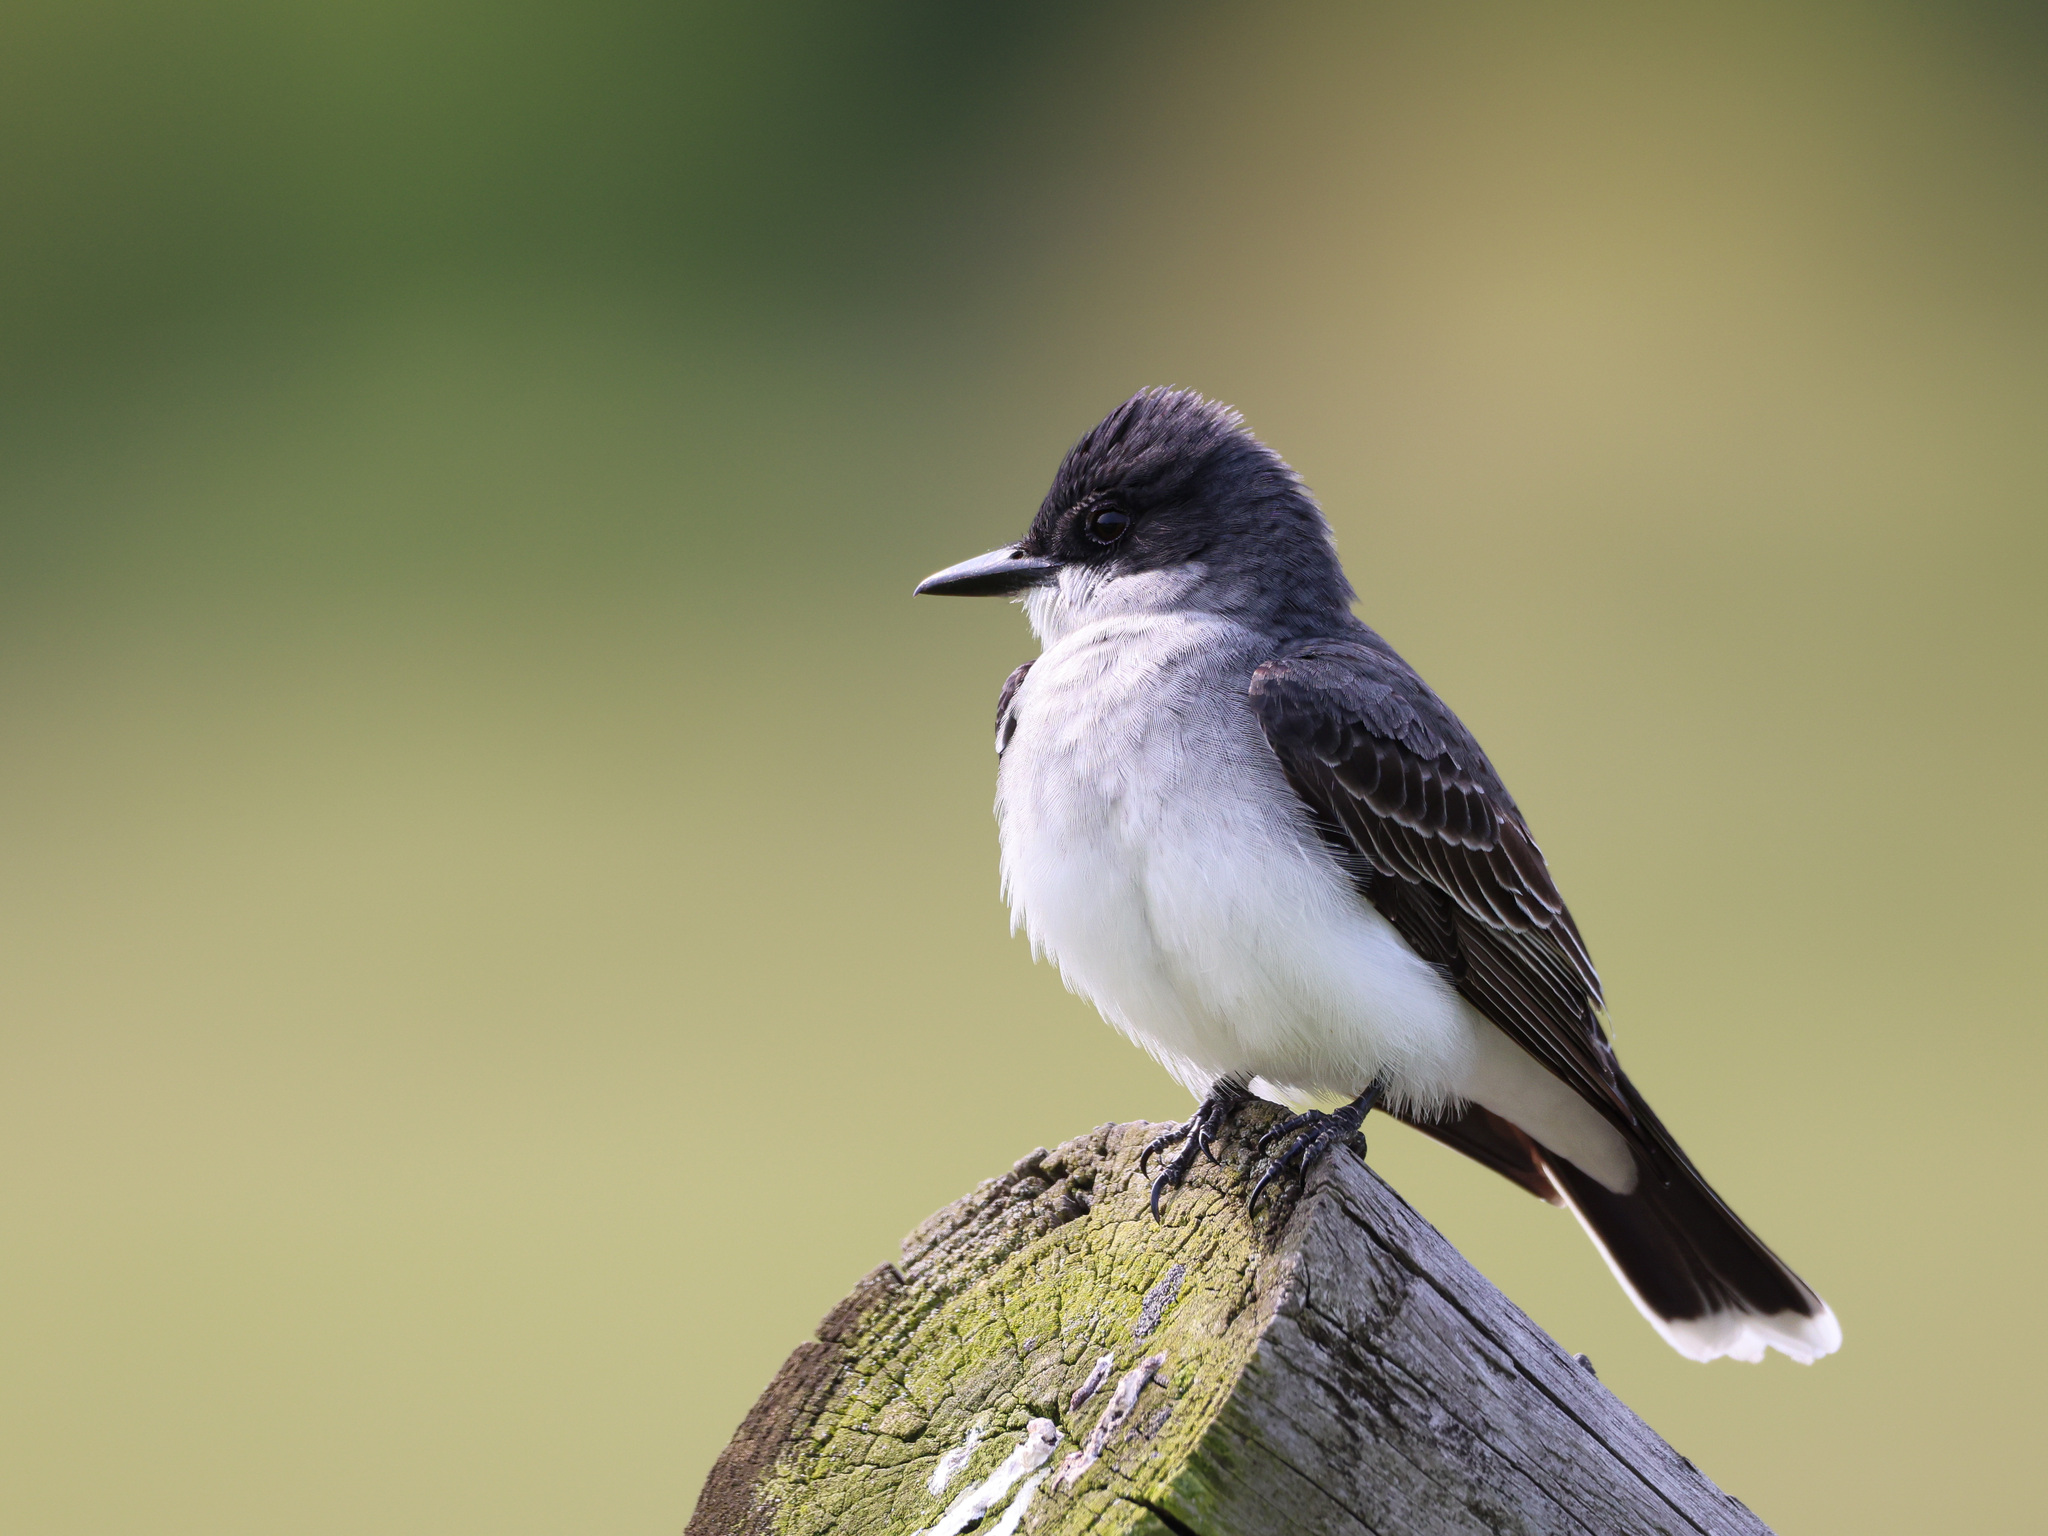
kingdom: Animalia
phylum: Chordata
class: Aves
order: Passeriformes
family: Tyrannidae
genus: Tyrannus
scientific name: Tyrannus tyrannus
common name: Eastern kingbird
